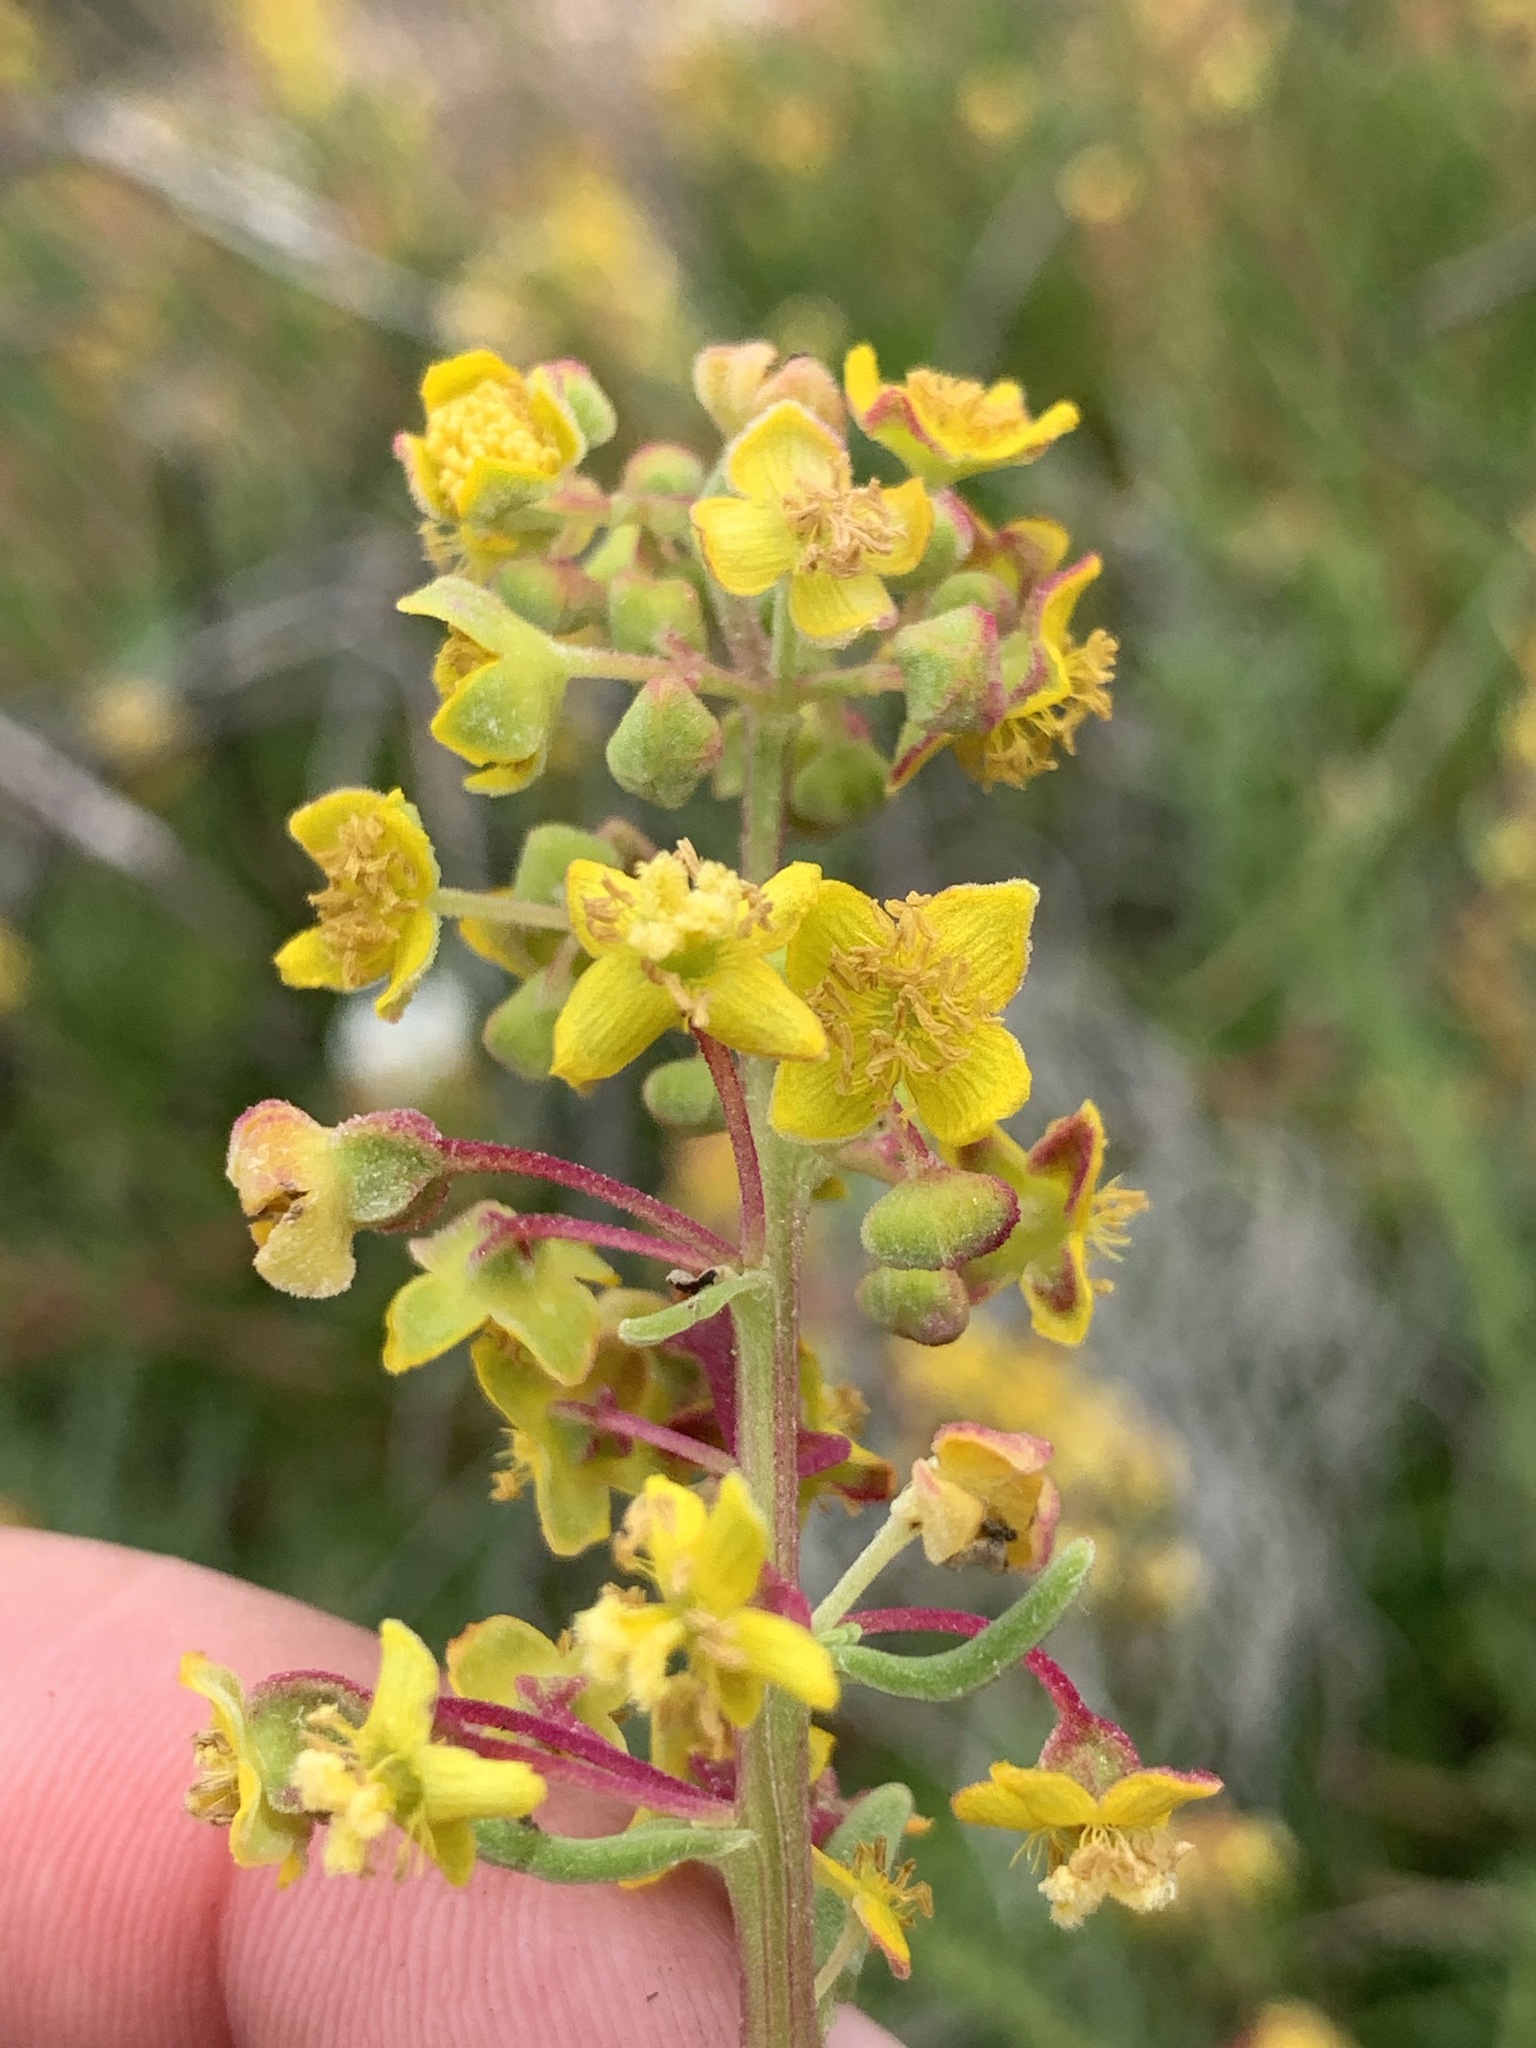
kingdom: Plantae
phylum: Tracheophyta
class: Magnoliopsida
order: Caryophyllales
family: Aizoaceae
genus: Tetragonia
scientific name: Tetragonia fruticosa
